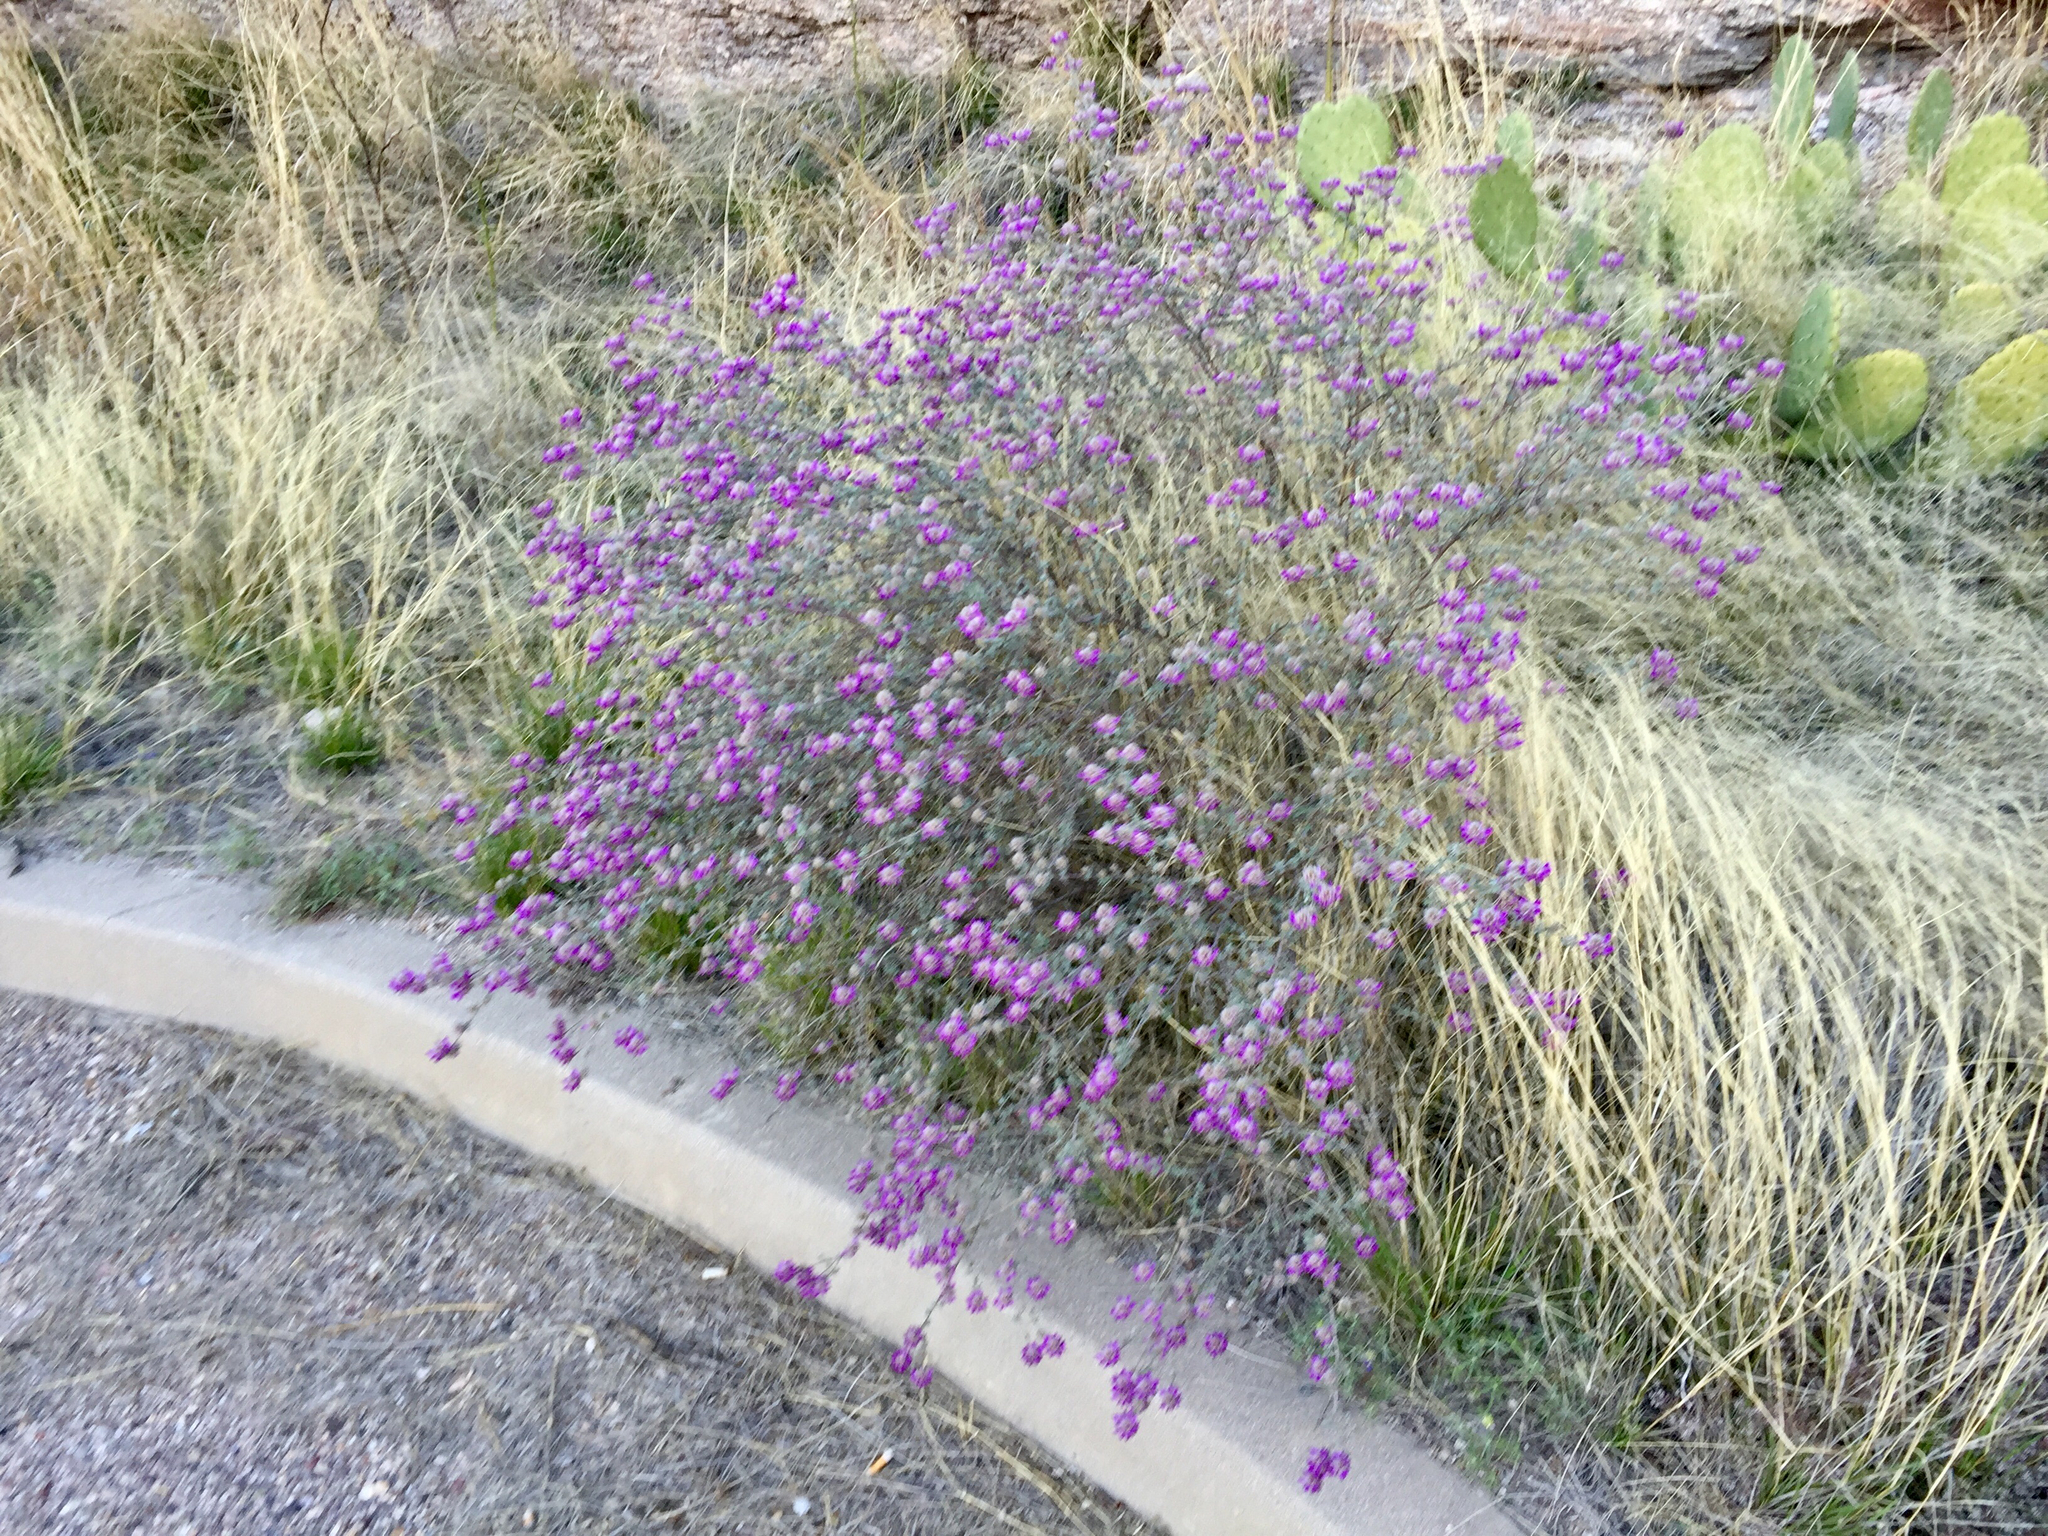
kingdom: Plantae
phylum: Tracheophyta
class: Magnoliopsida
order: Fabales
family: Fabaceae
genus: Dalea
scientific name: Dalea pulchra
